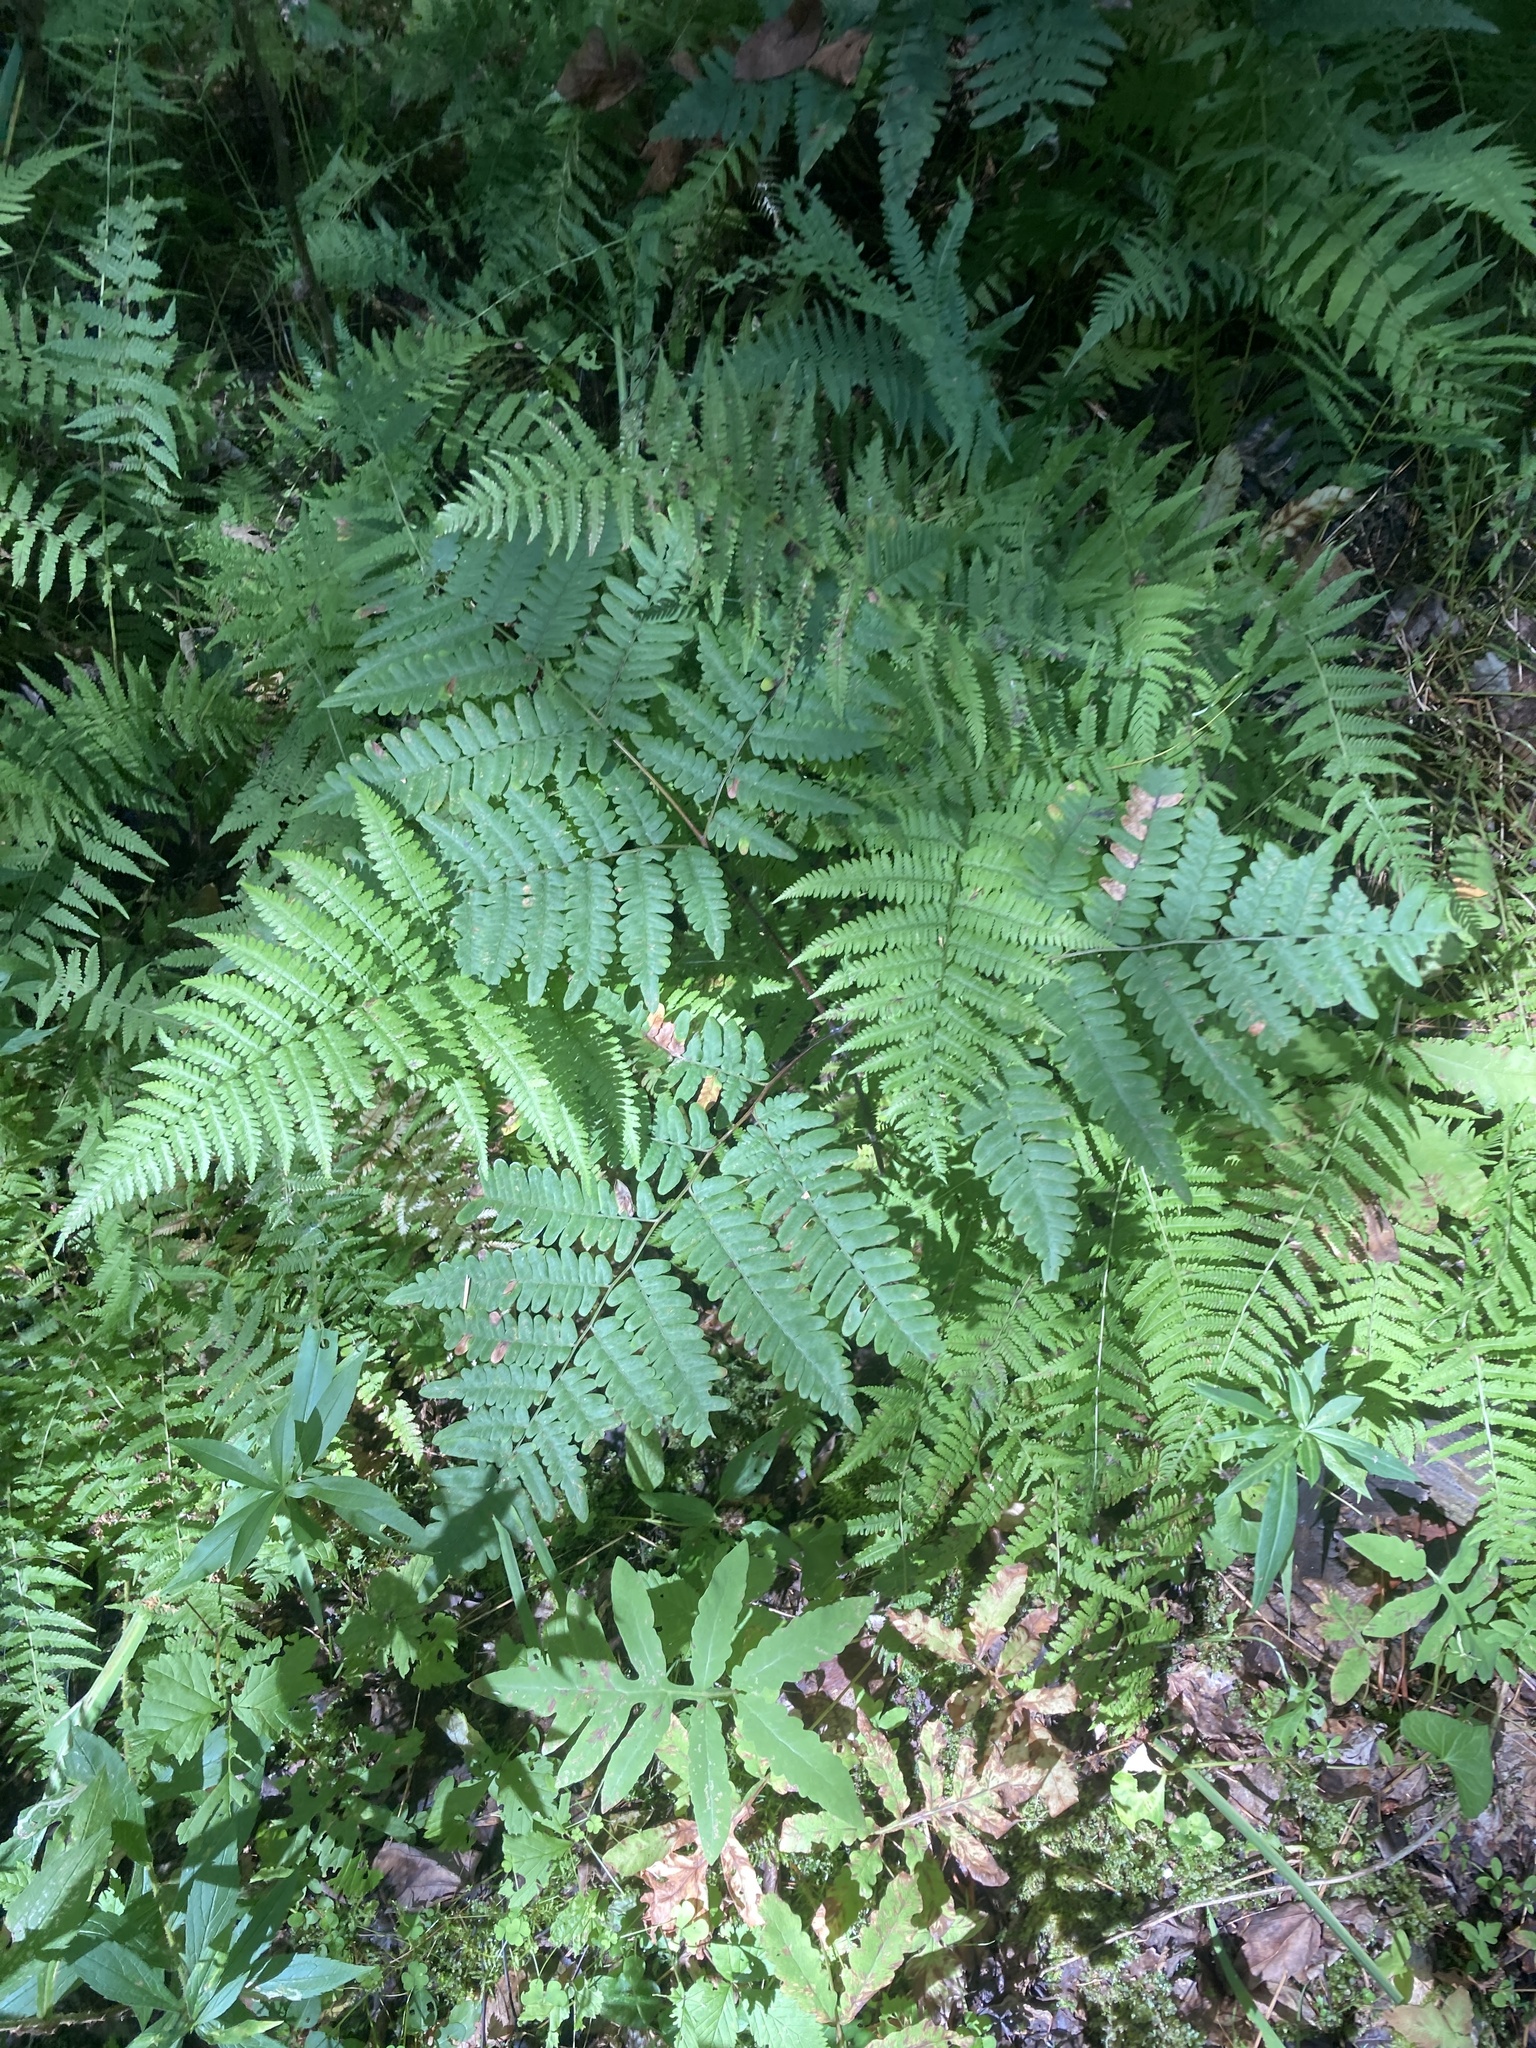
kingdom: Plantae
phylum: Tracheophyta
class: Polypodiopsida
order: Polypodiales
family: Dennstaedtiaceae
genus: Pteridium
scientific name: Pteridium aquilinum
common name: Bracken
